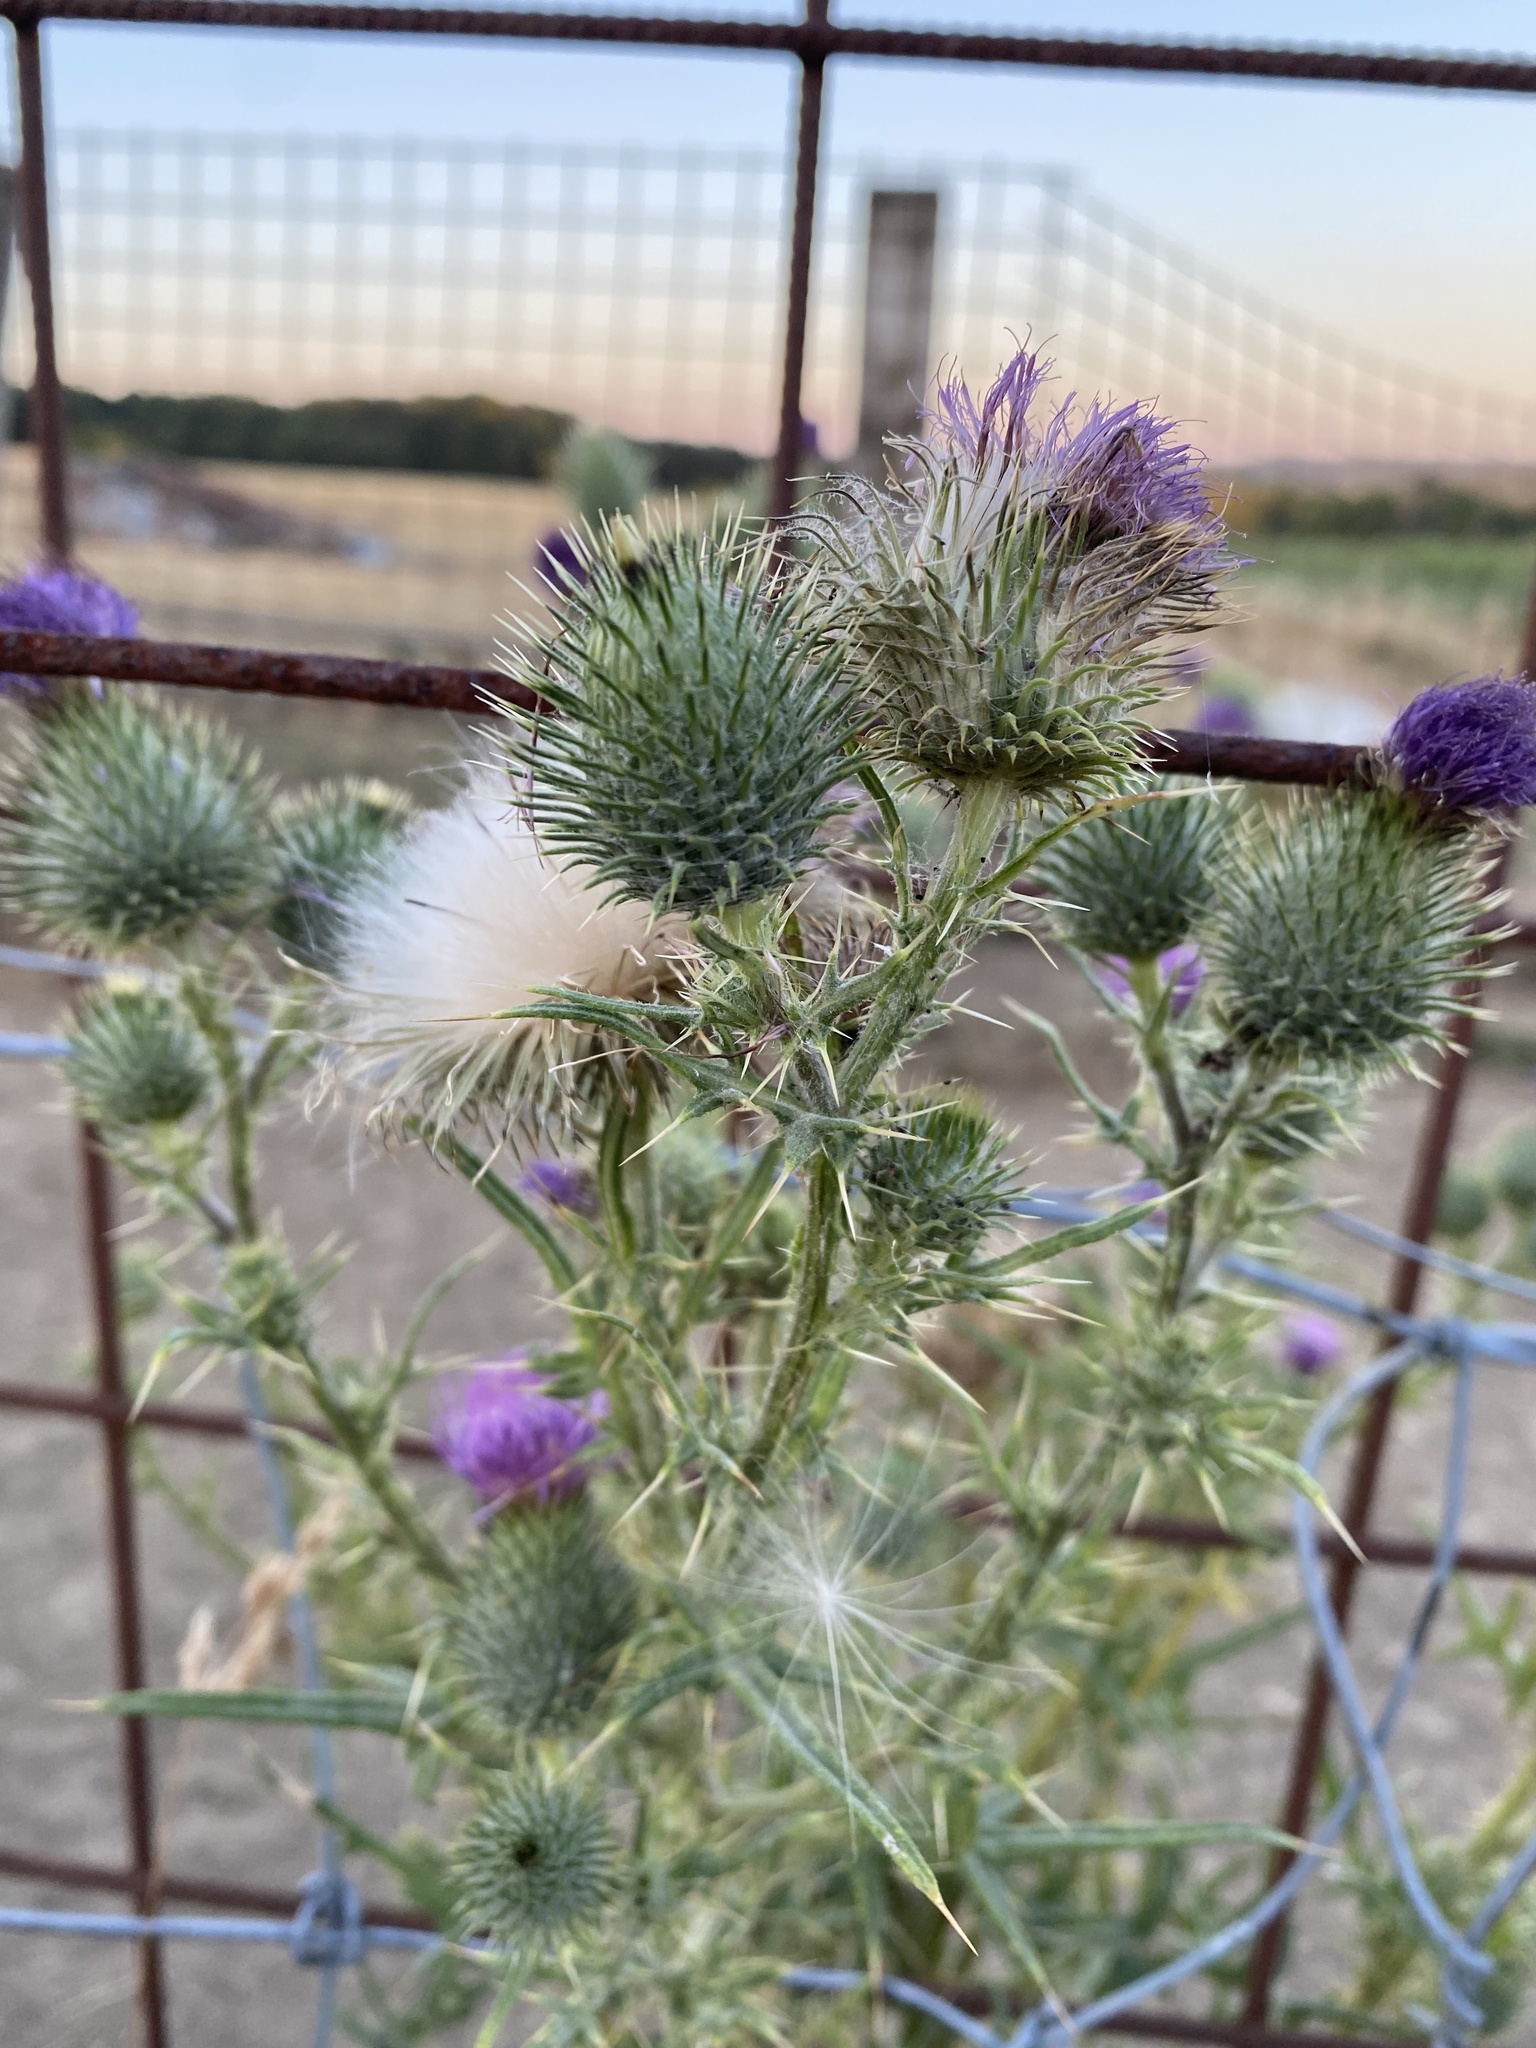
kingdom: Plantae
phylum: Tracheophyta
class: Magnoliopsida
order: Asterales
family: Asteraceae
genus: Cirsium
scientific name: Cirsium vulgare
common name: Bull thistle
